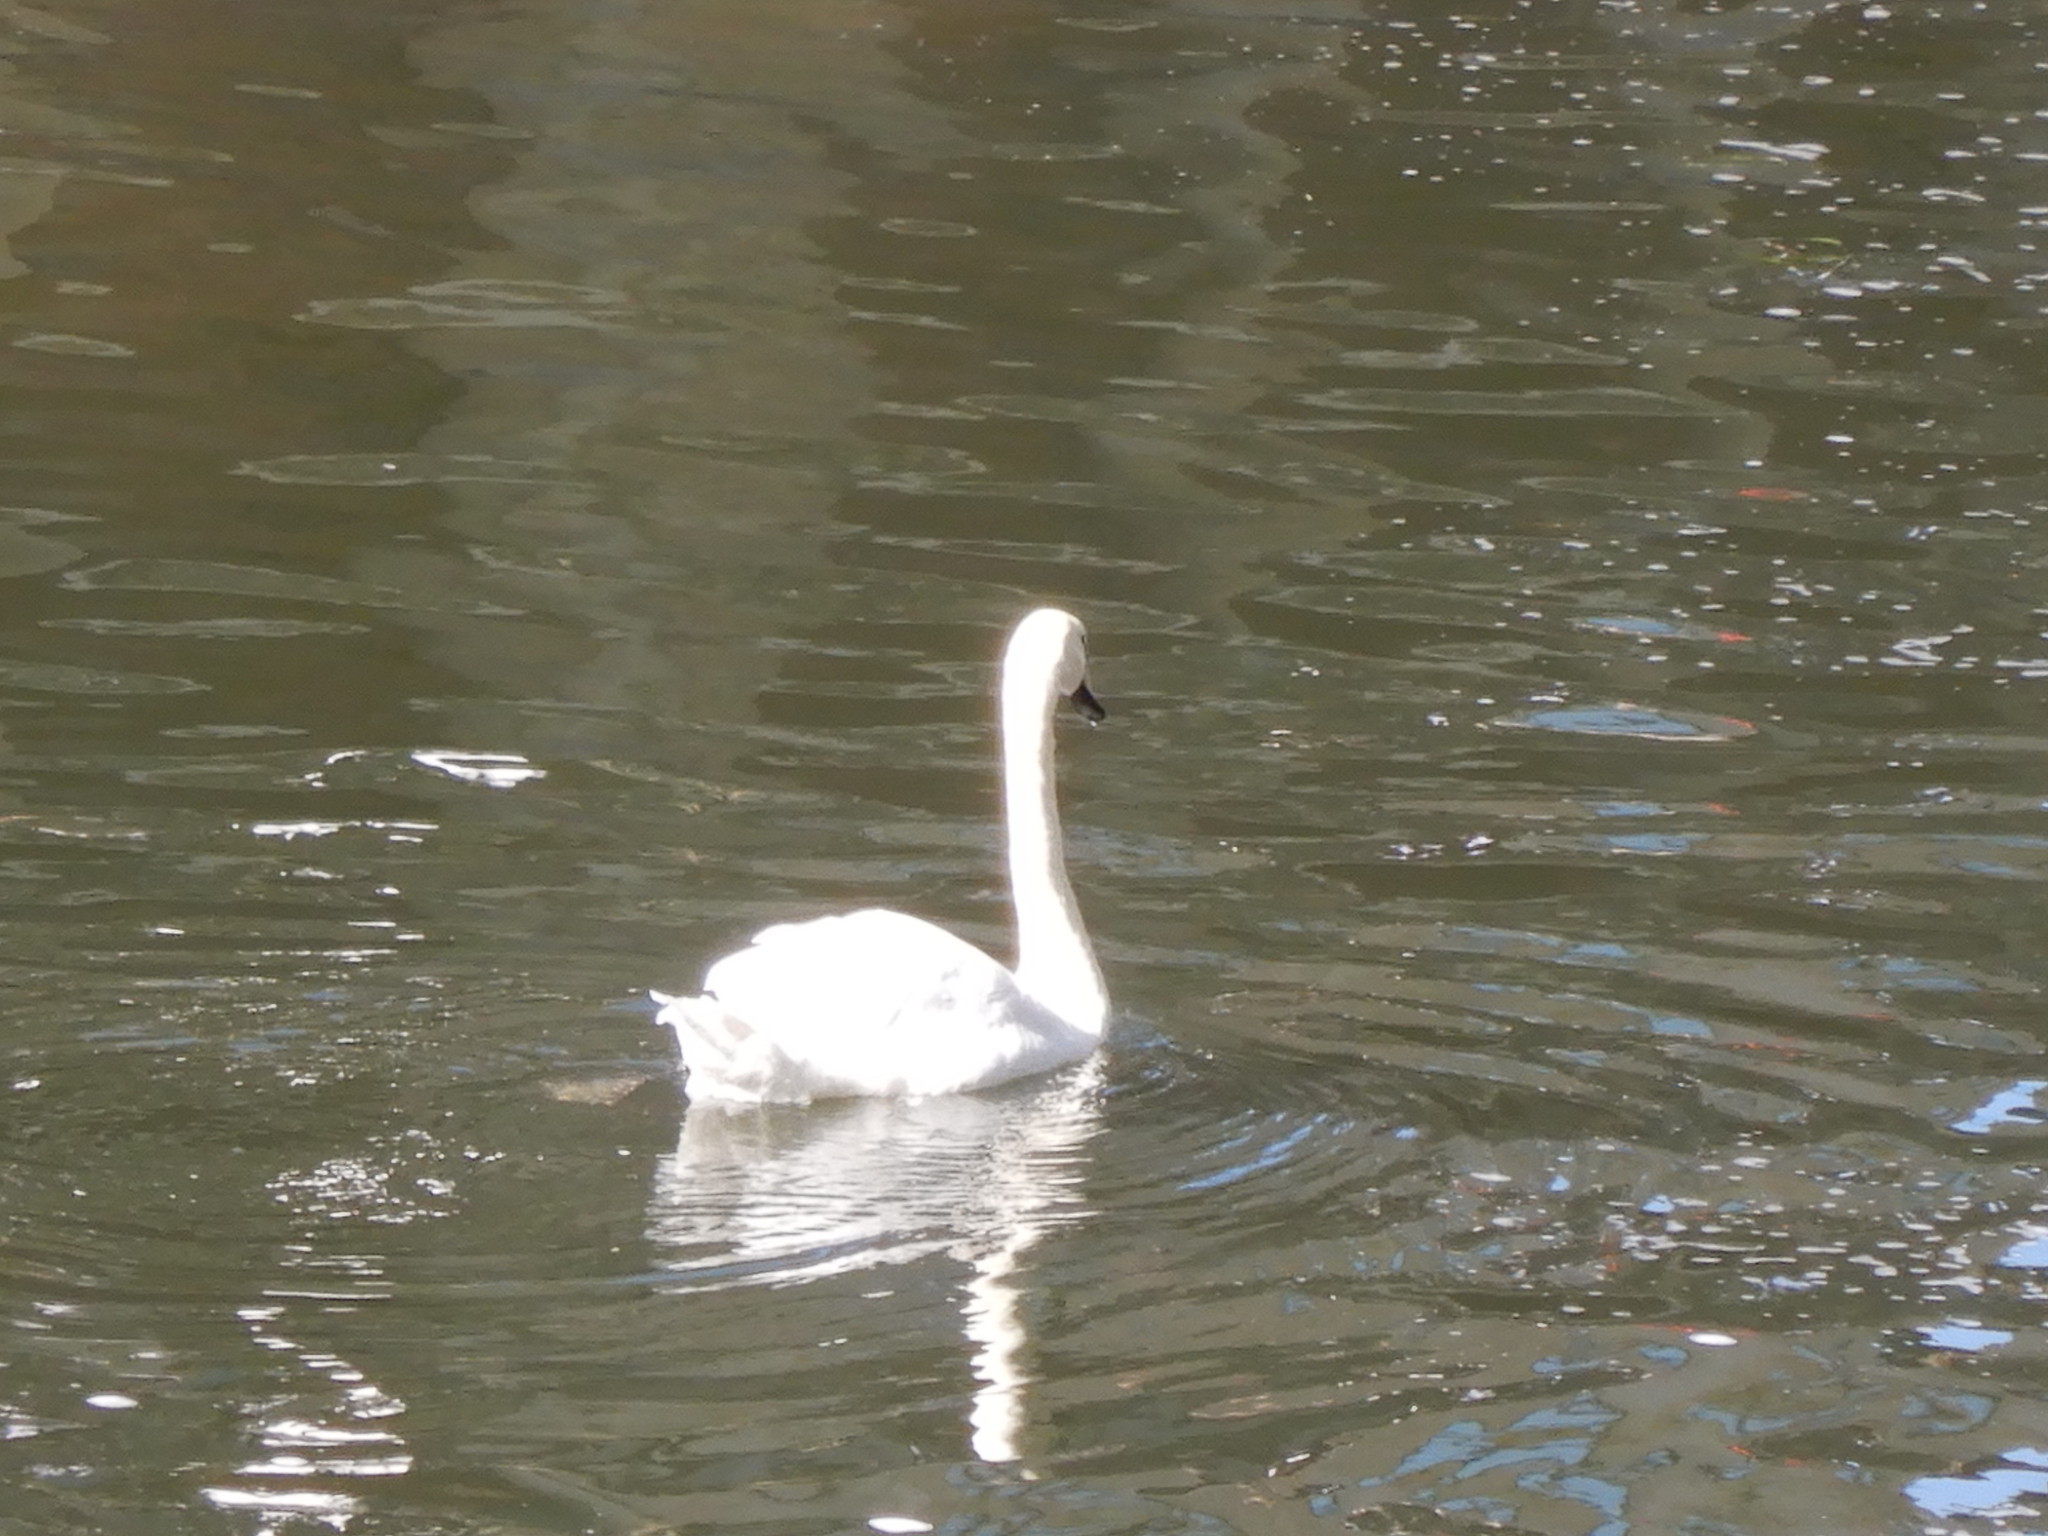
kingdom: Animalia
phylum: Chordata
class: Aves
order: Anseriformes
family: Anatidae
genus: Cygnus
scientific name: Cygnus olor
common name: Mute swan
